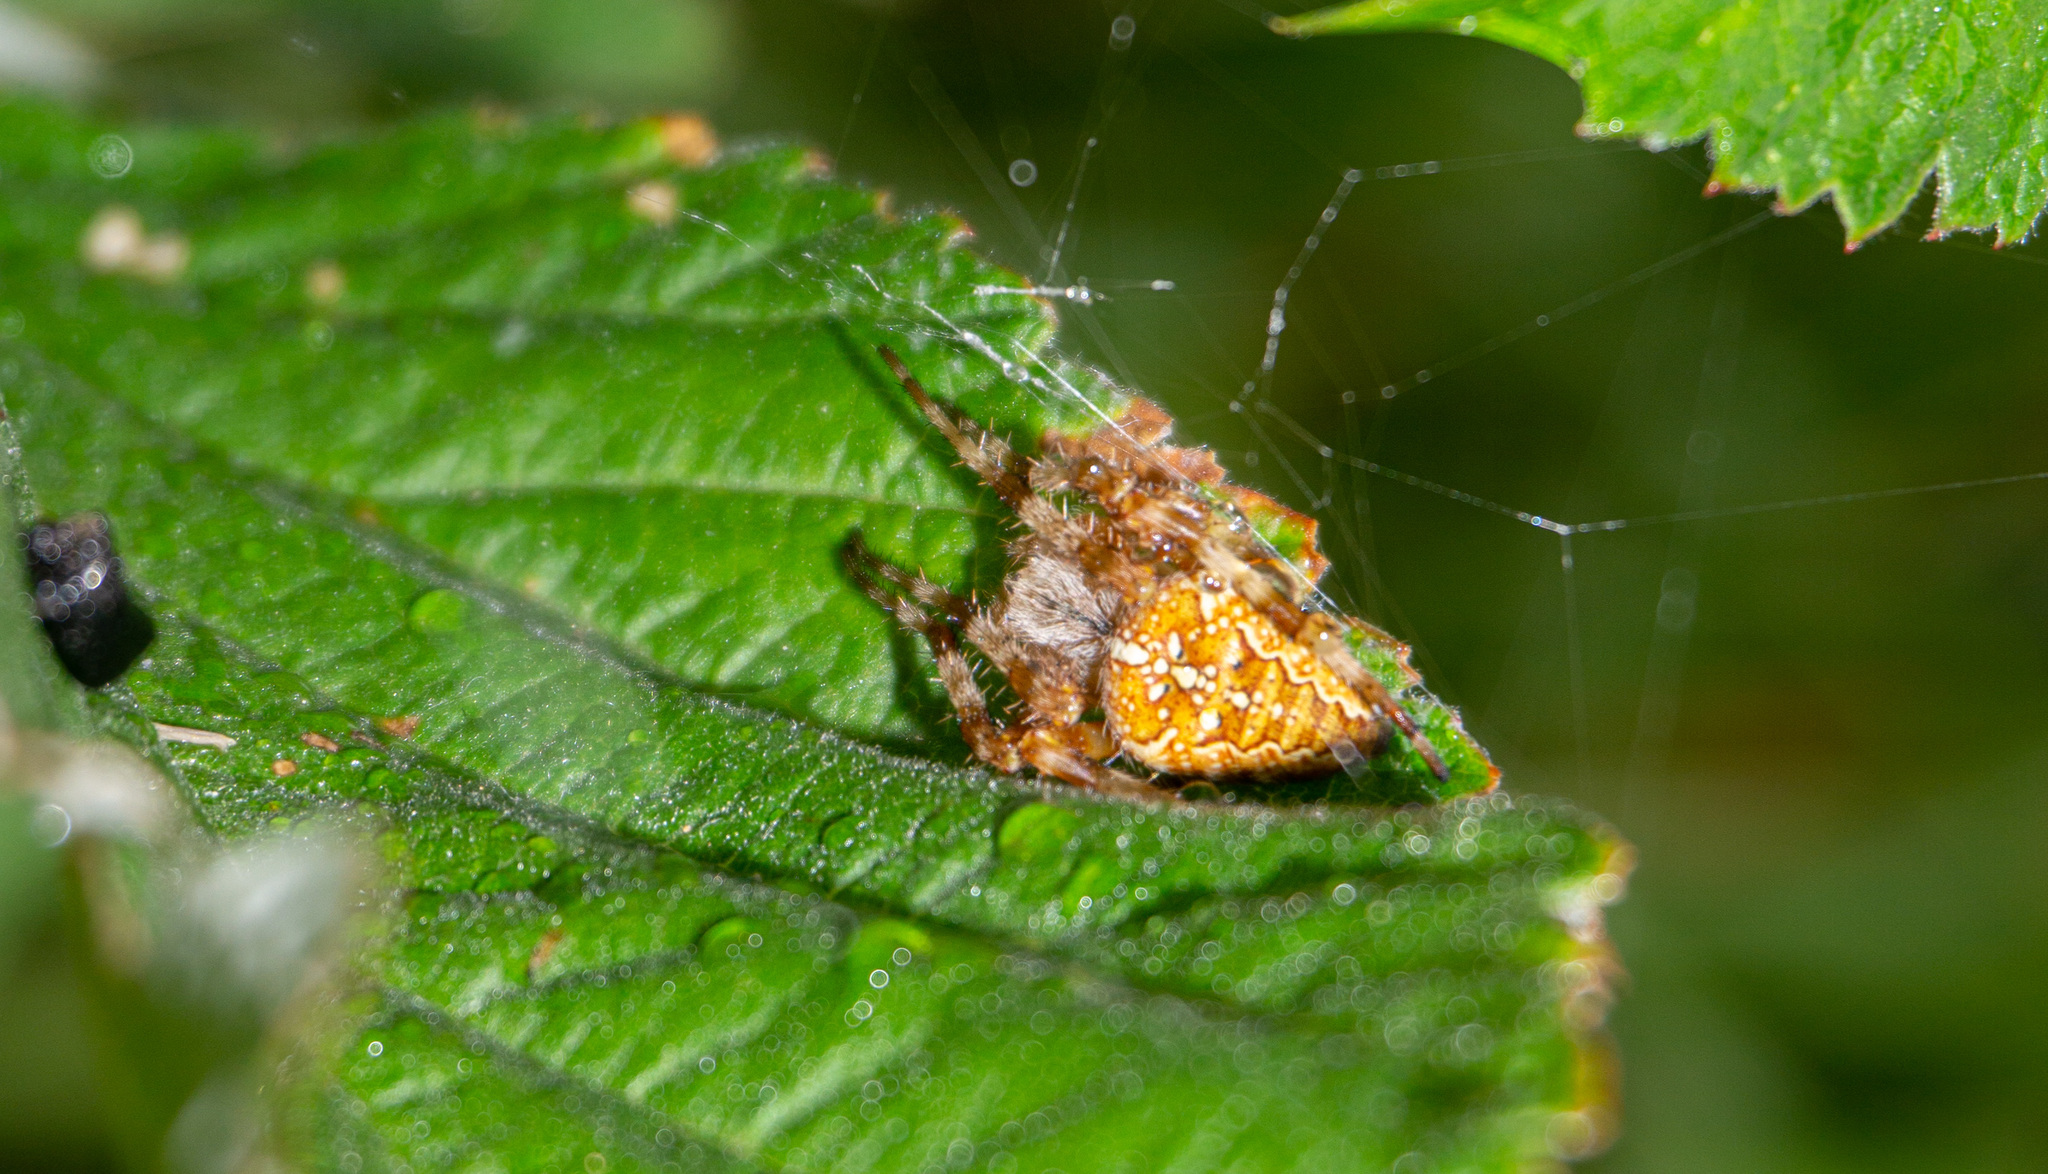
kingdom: Animalia
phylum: Arthropoda
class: Arachnida
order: Araneae
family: Araneidae
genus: Araneus
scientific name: Araneus diadematus
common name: Cross orbweaver
